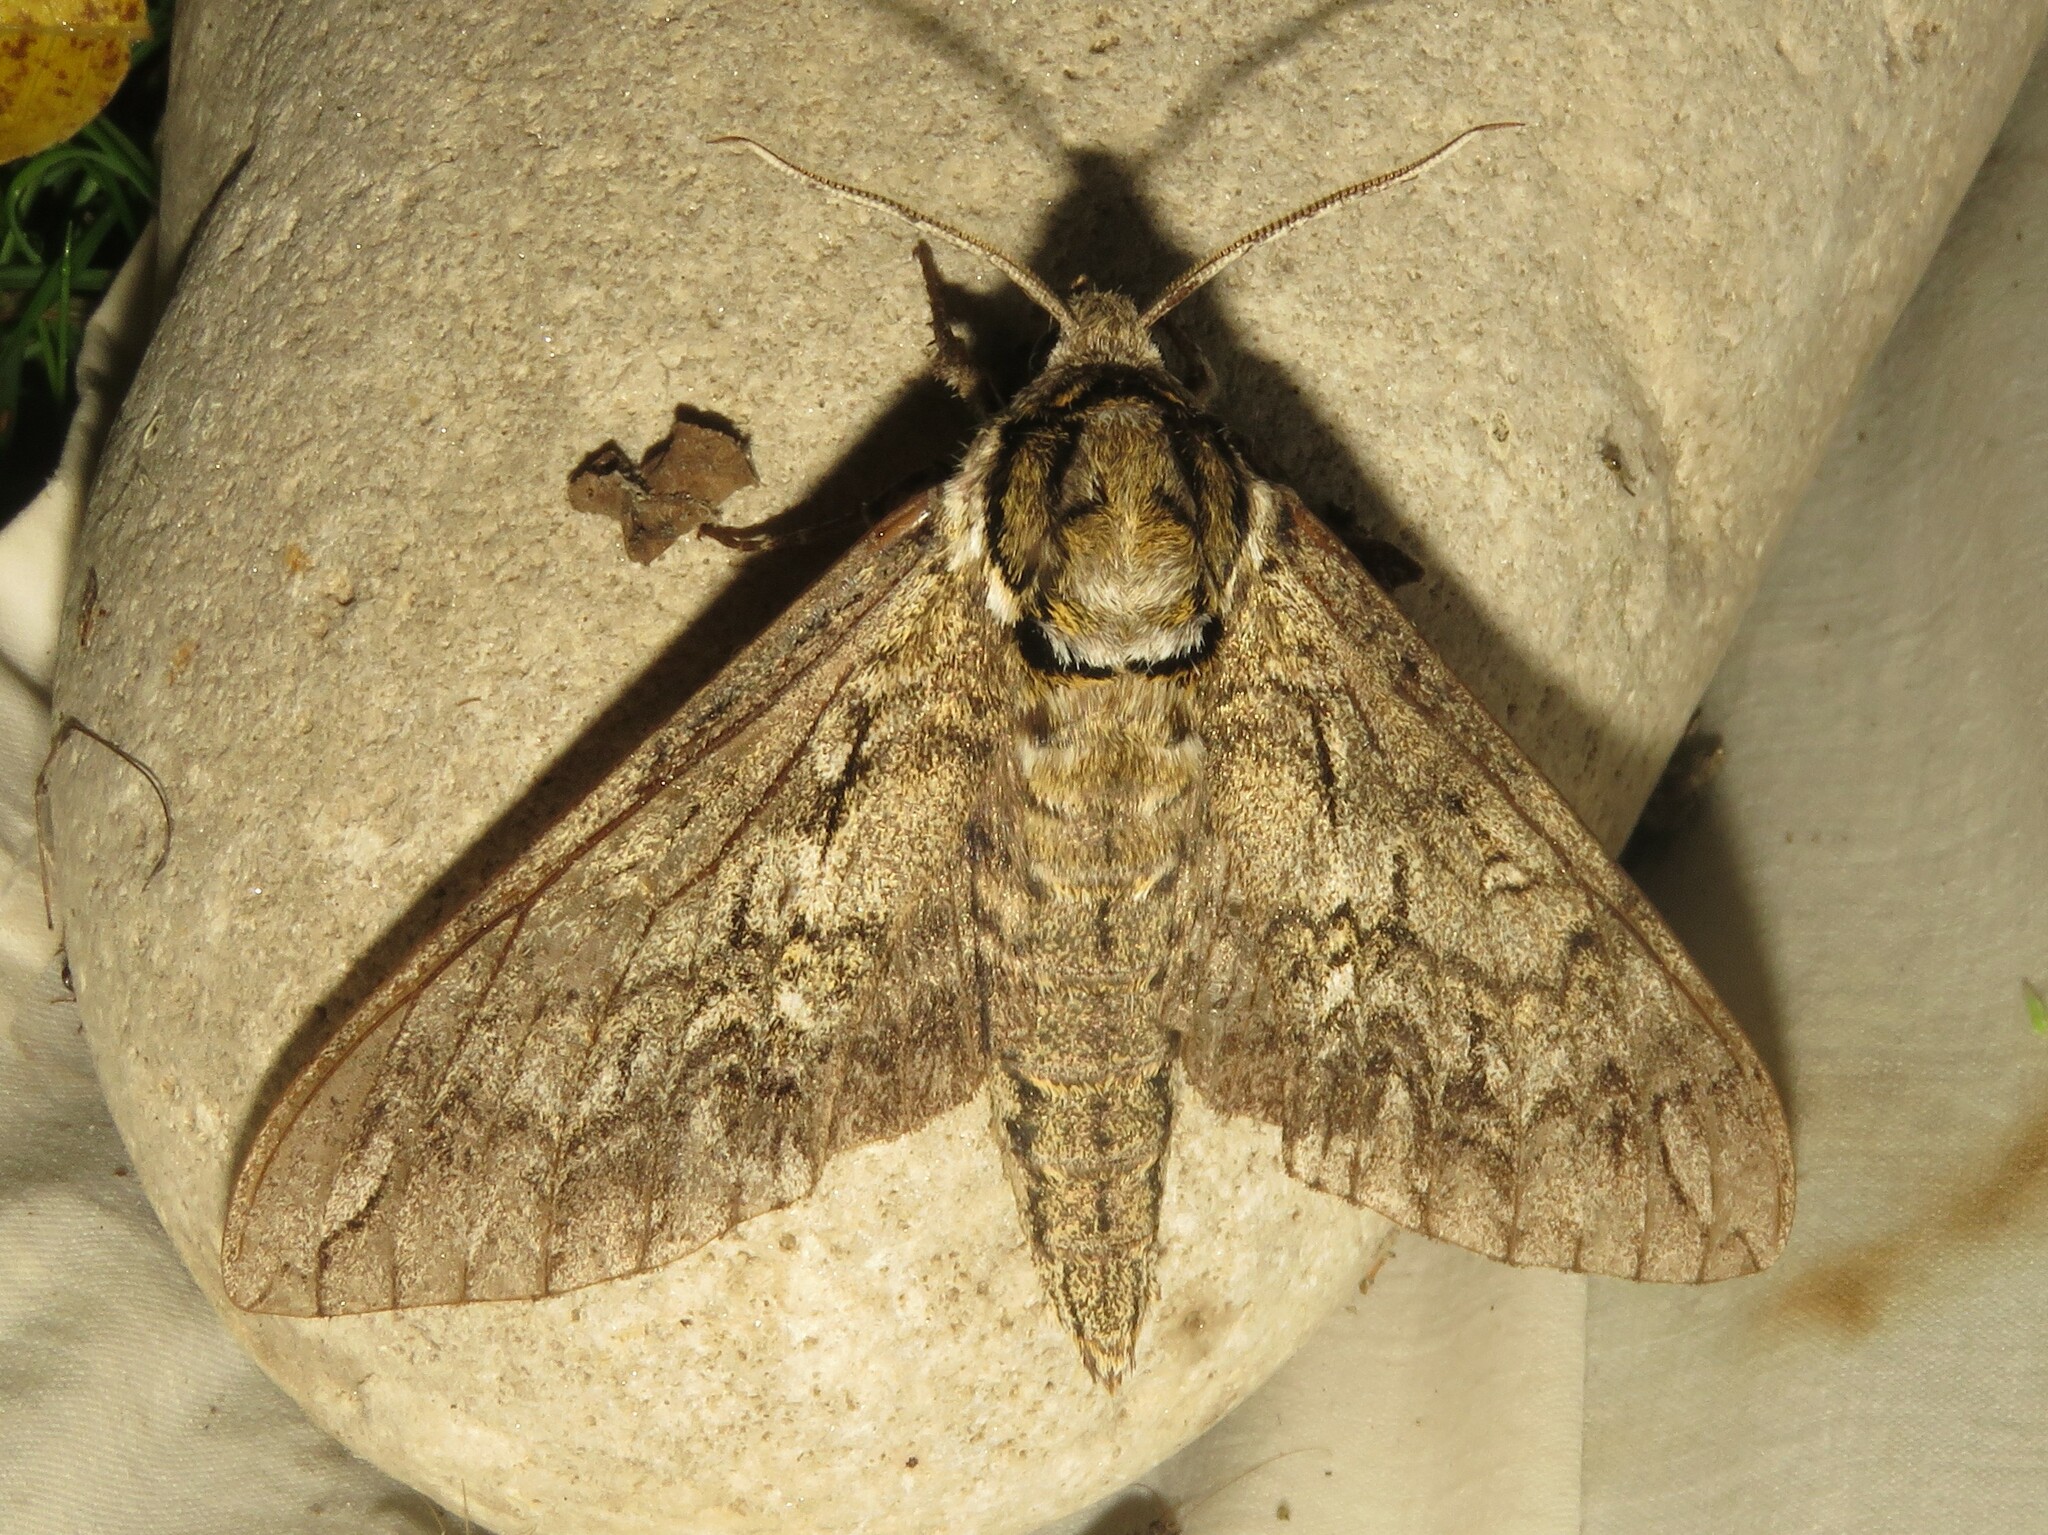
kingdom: Animalia
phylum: Arthropoda
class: Insecta
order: Lepidoptera
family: Sphingidae
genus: Ceratomia
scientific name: Ceratomia undulosa
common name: Waved sphinx
